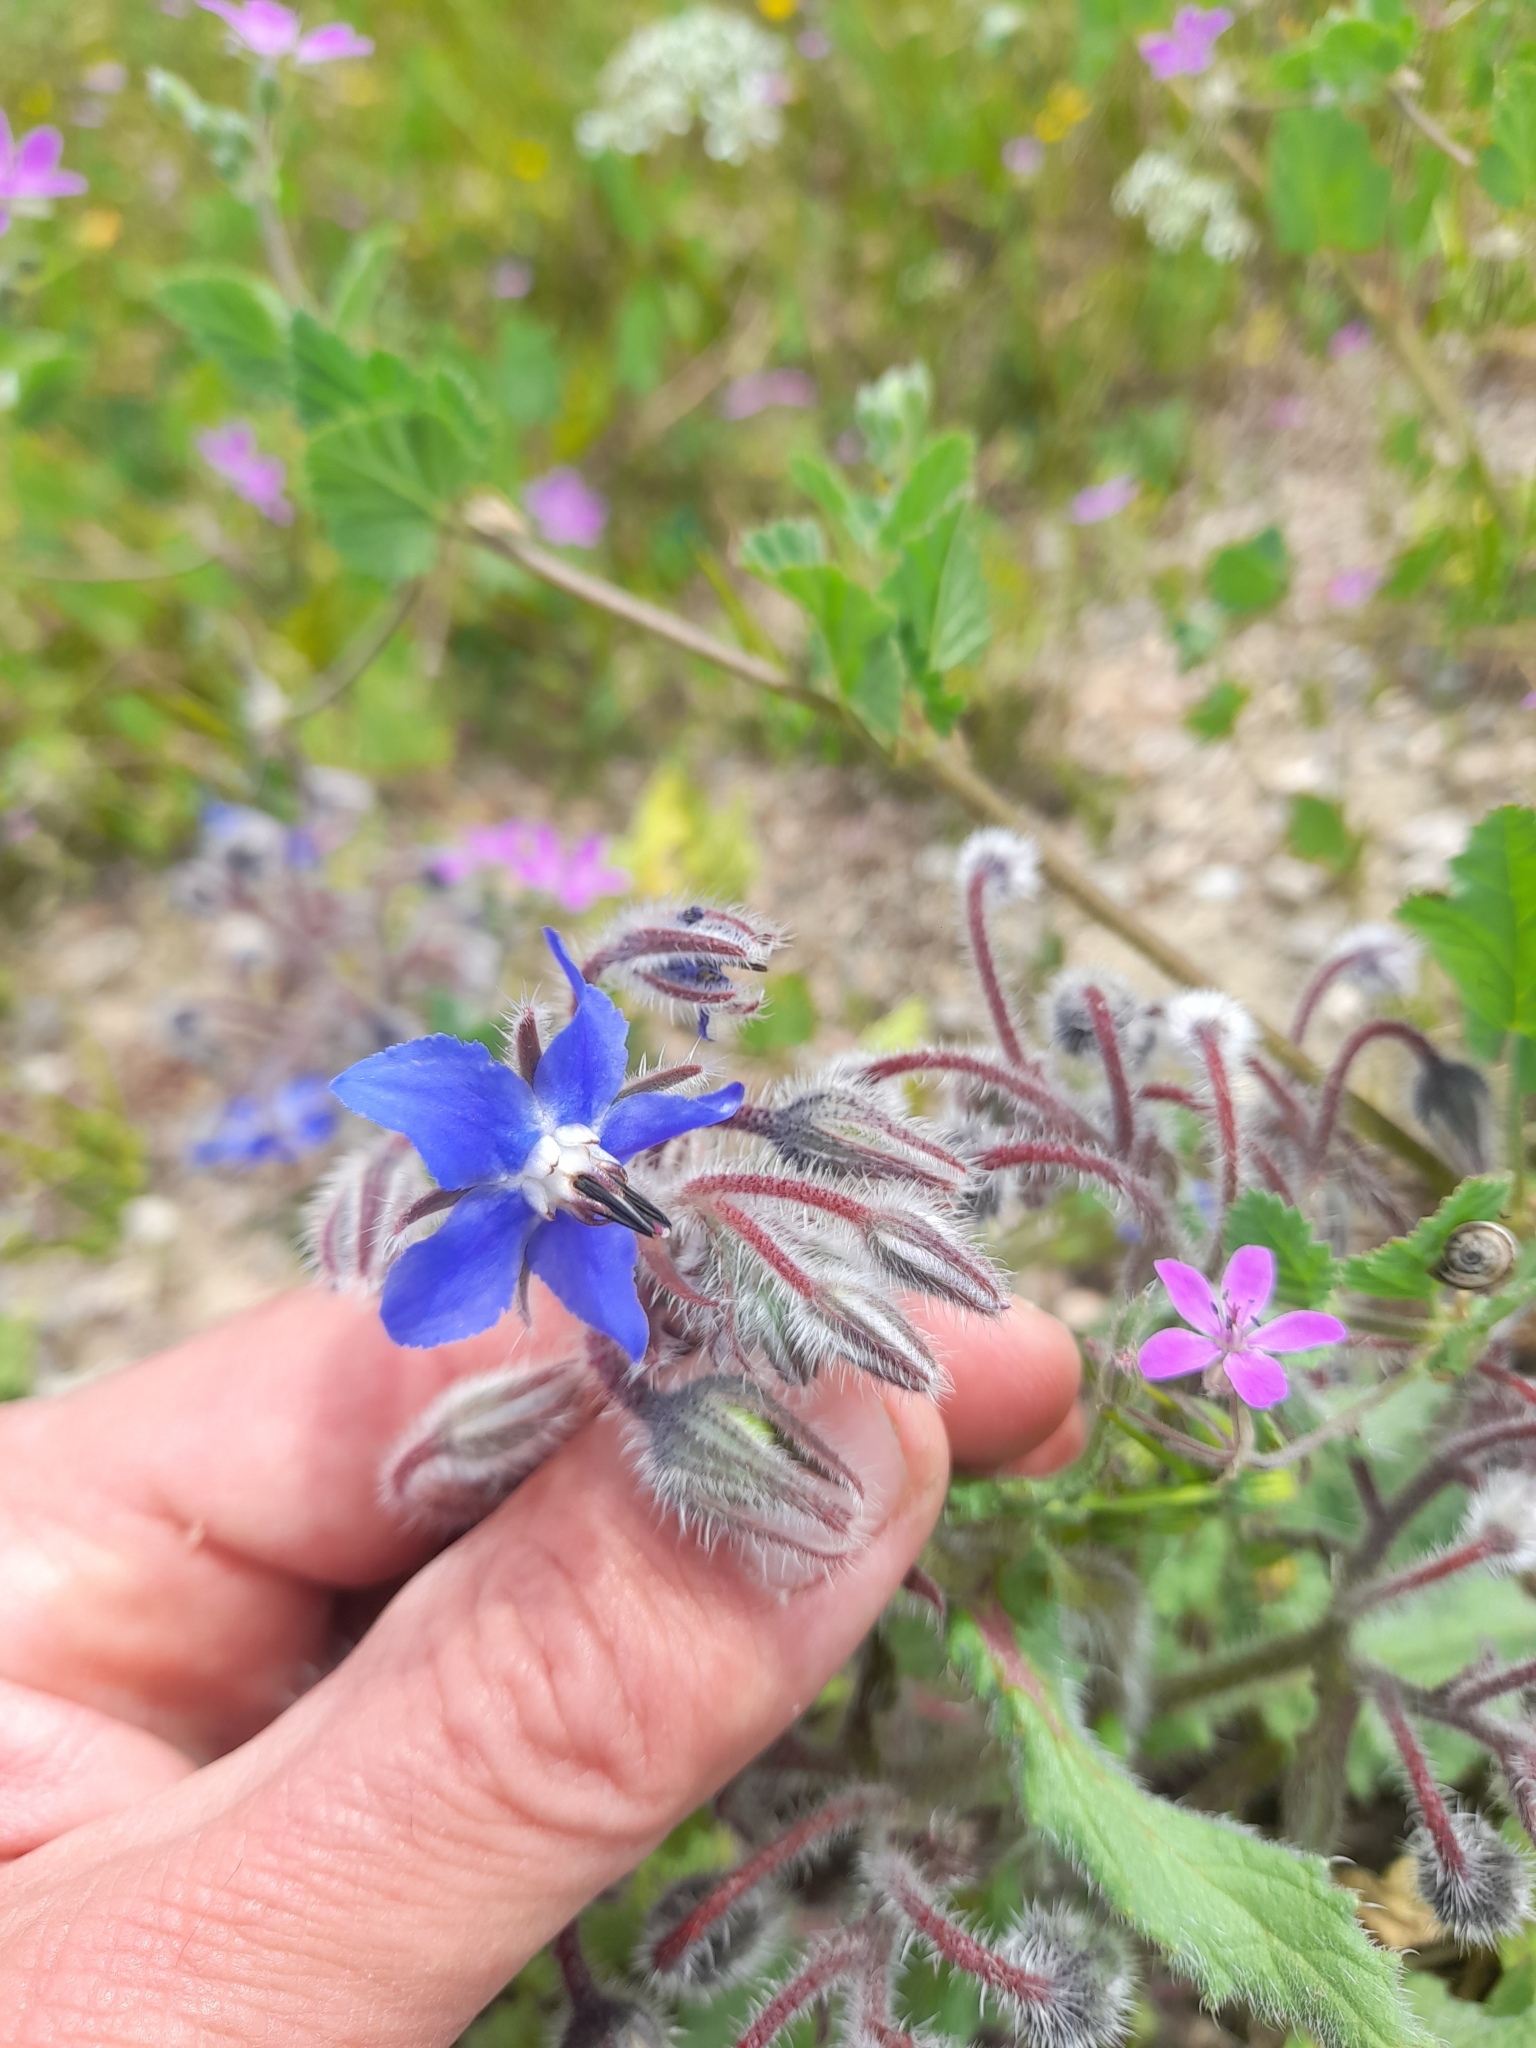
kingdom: Plantae
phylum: Tracheophyta
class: Magnoliopsida
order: Boraginales
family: Boraginaceae
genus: Borago
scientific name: Borago officinalis
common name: Borage
